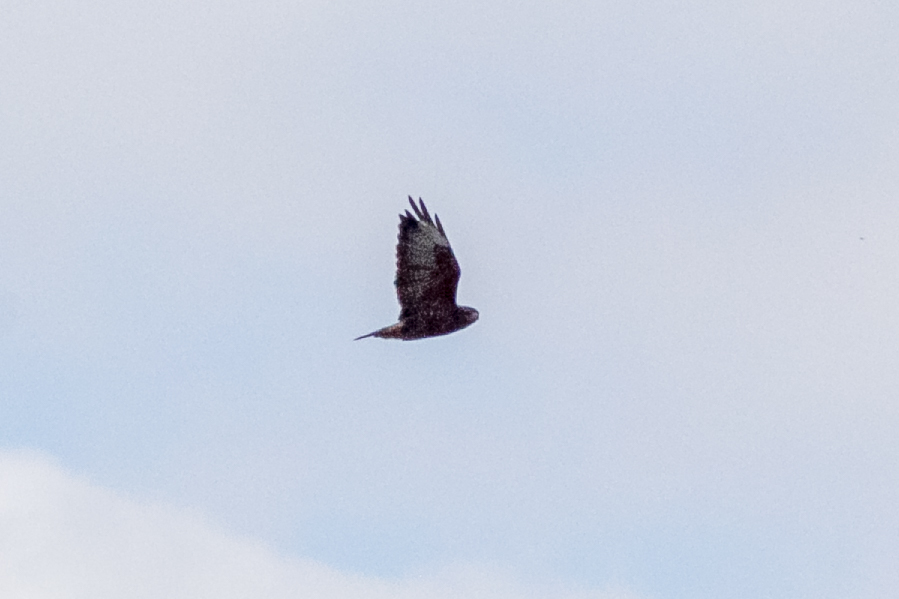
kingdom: Animalia
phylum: Chordata
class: Aves
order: Accipitriformes
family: Accipitridae
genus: Buteo
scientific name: Buteo buteo
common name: Common buzzard
